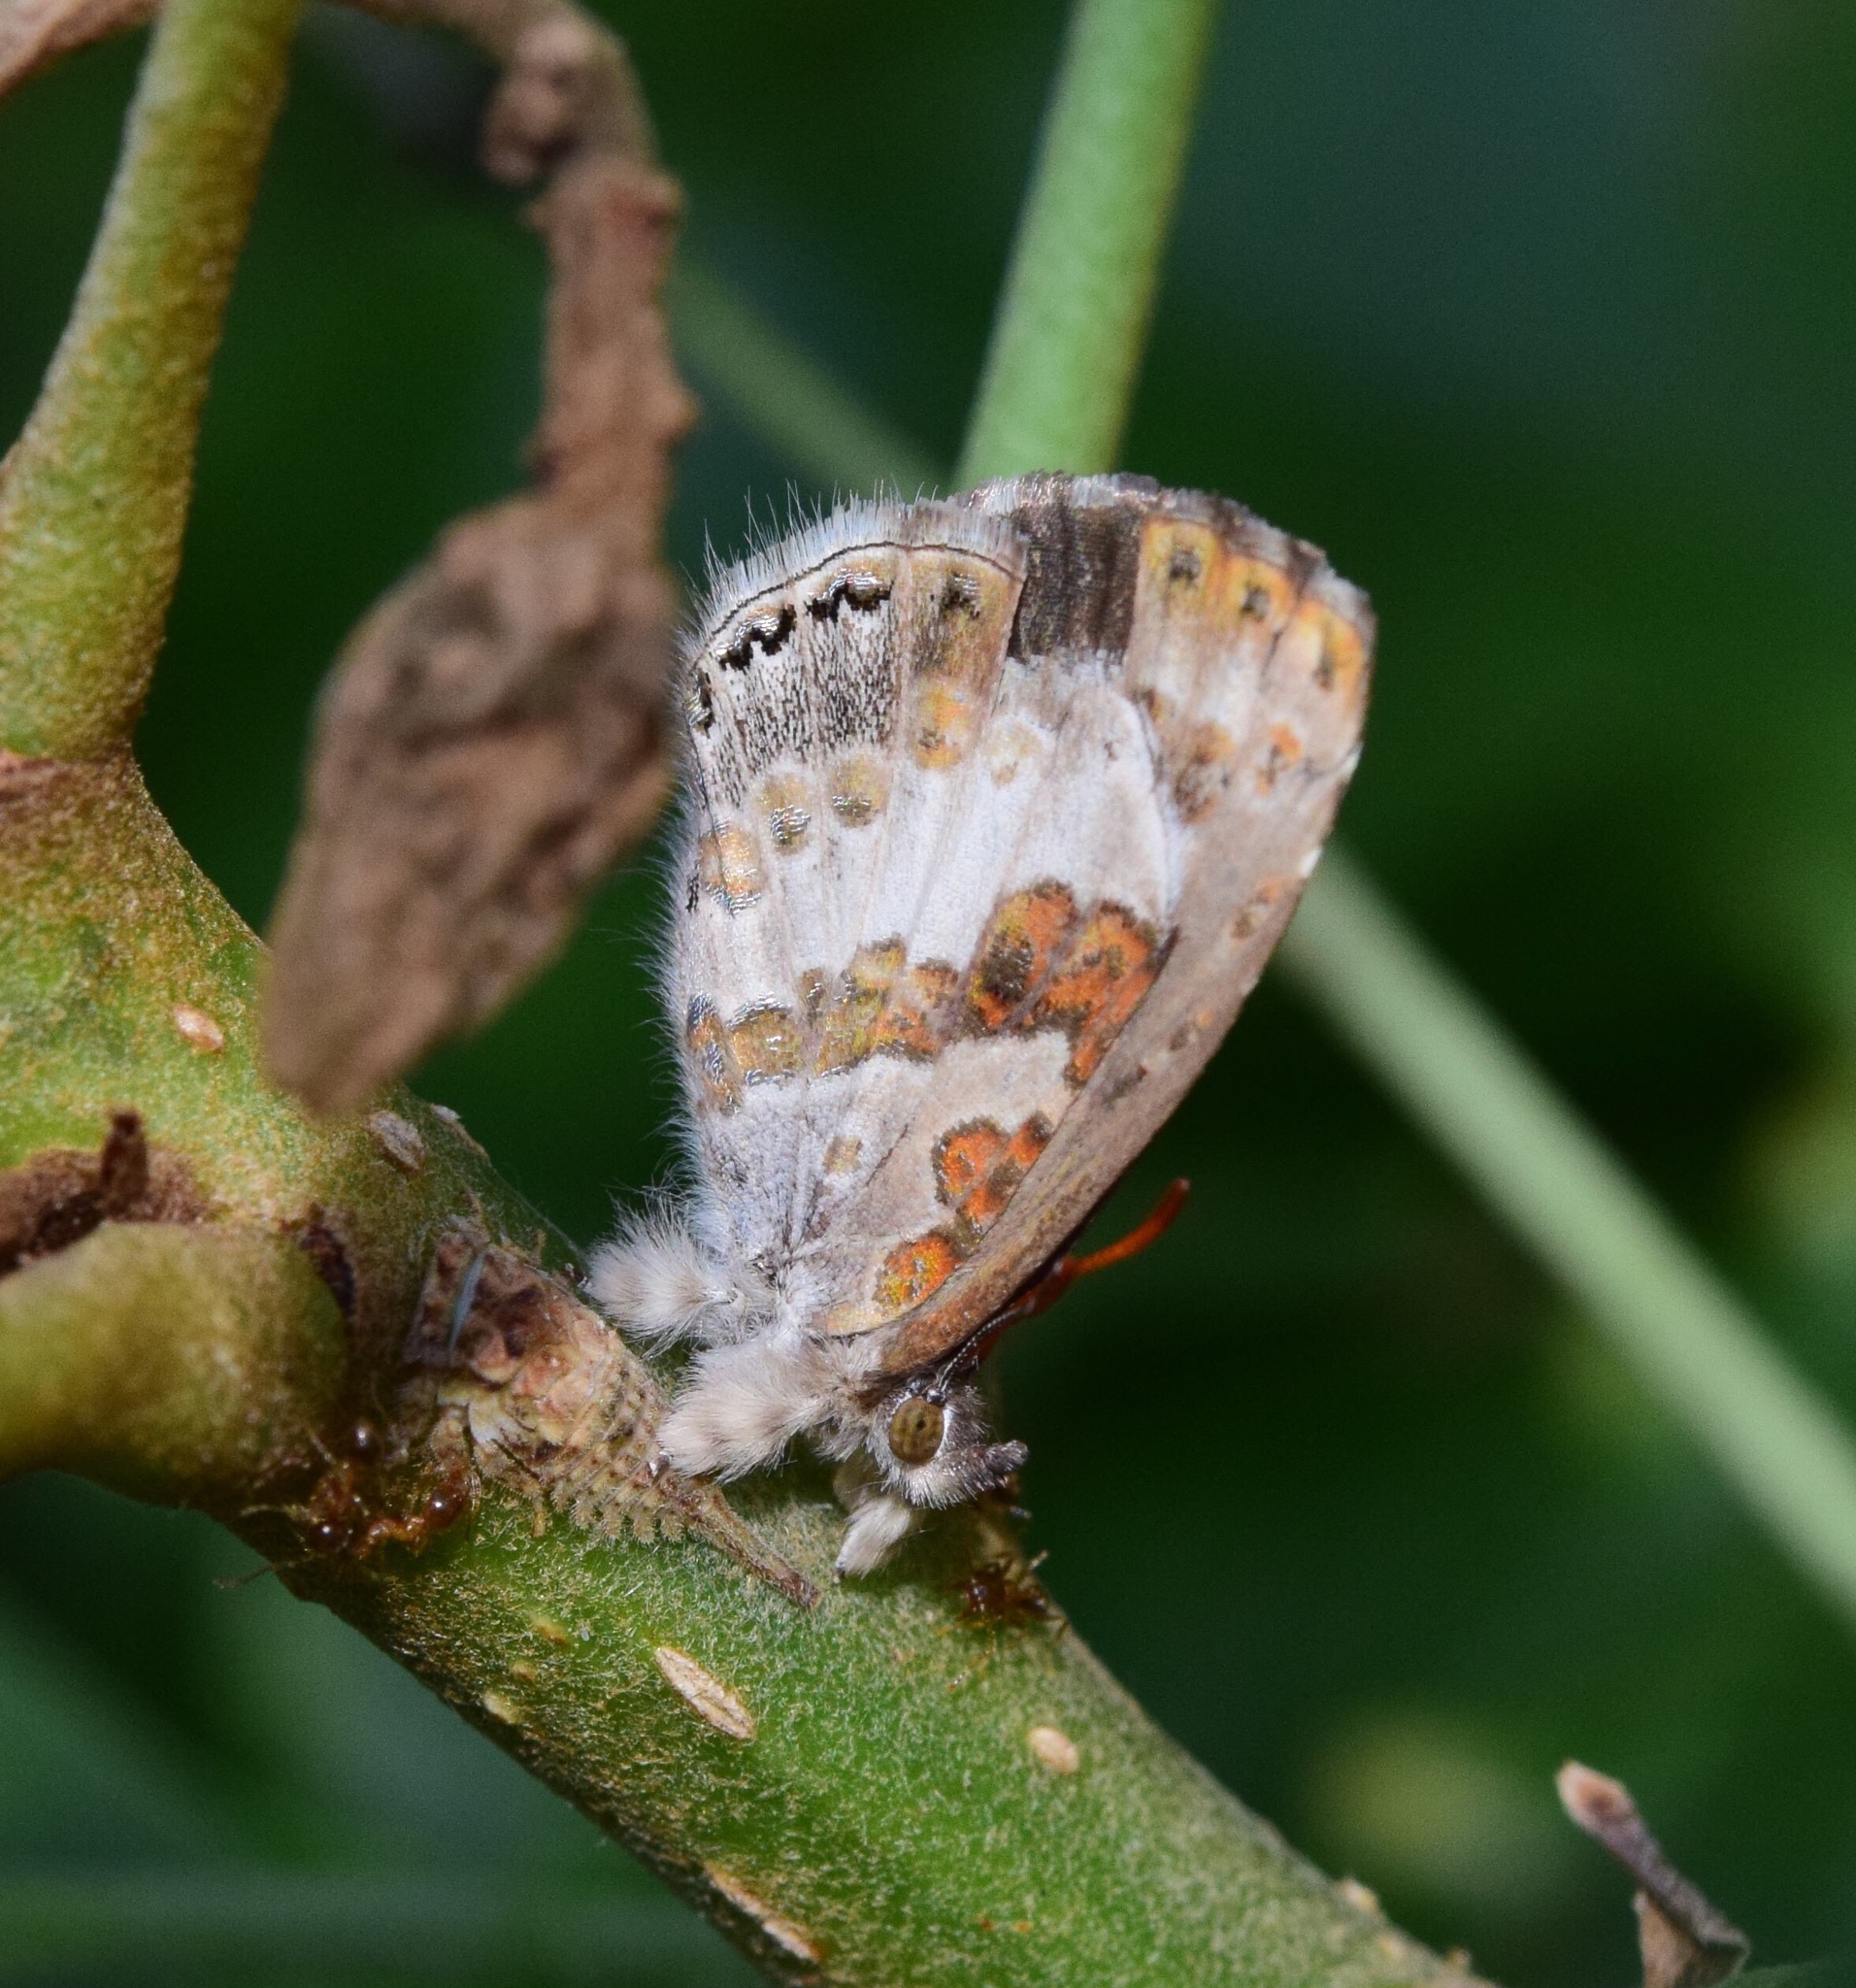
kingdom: Animalia
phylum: Arthropoda
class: Insecta
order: Lepidoptera
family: Lycaenidae
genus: Lachnocnema
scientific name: Lachnocnema bibulus
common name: Common woolly legs
